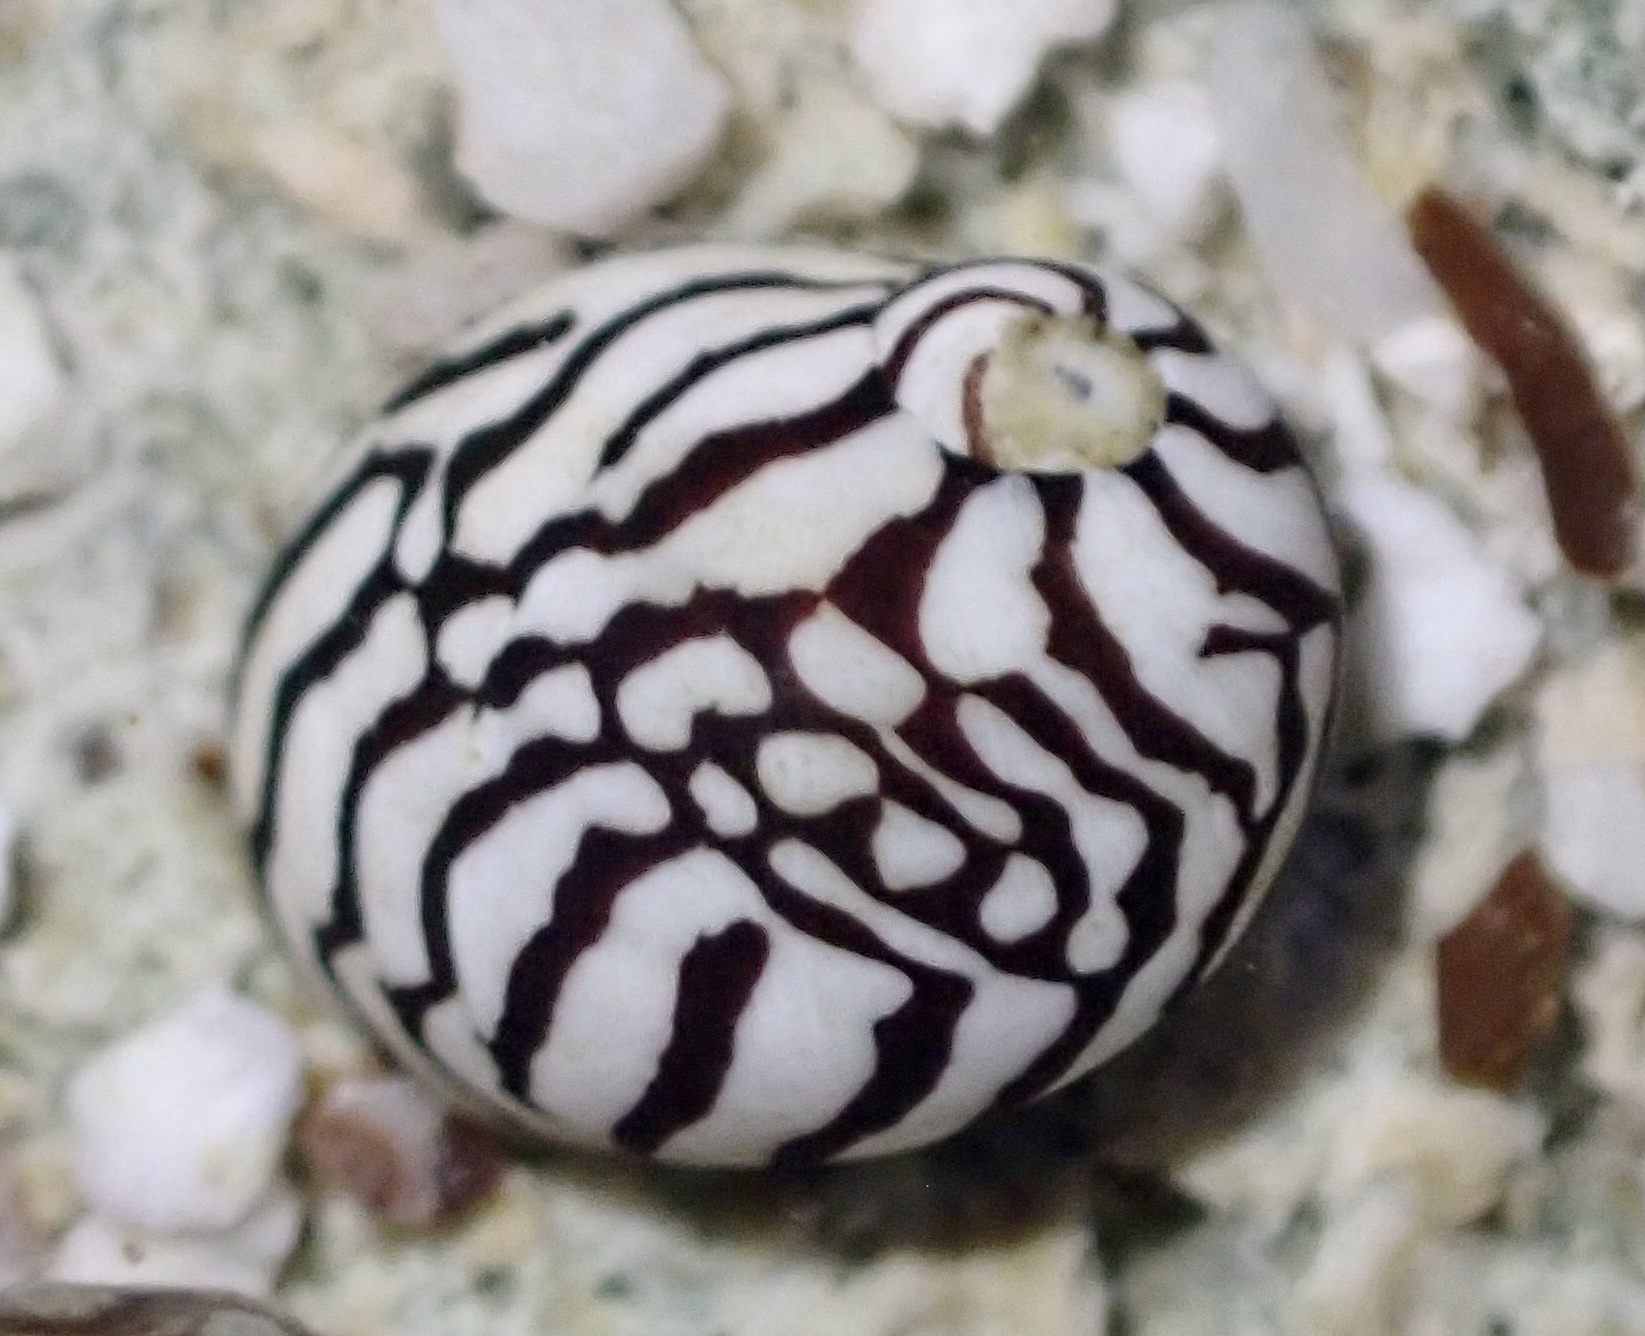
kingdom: Animalia
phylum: Mollusca
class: Gastropoda
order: Cycloneritida
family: Neritidae
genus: Puperita
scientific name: Puperita pupa
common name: Zebra nerite
